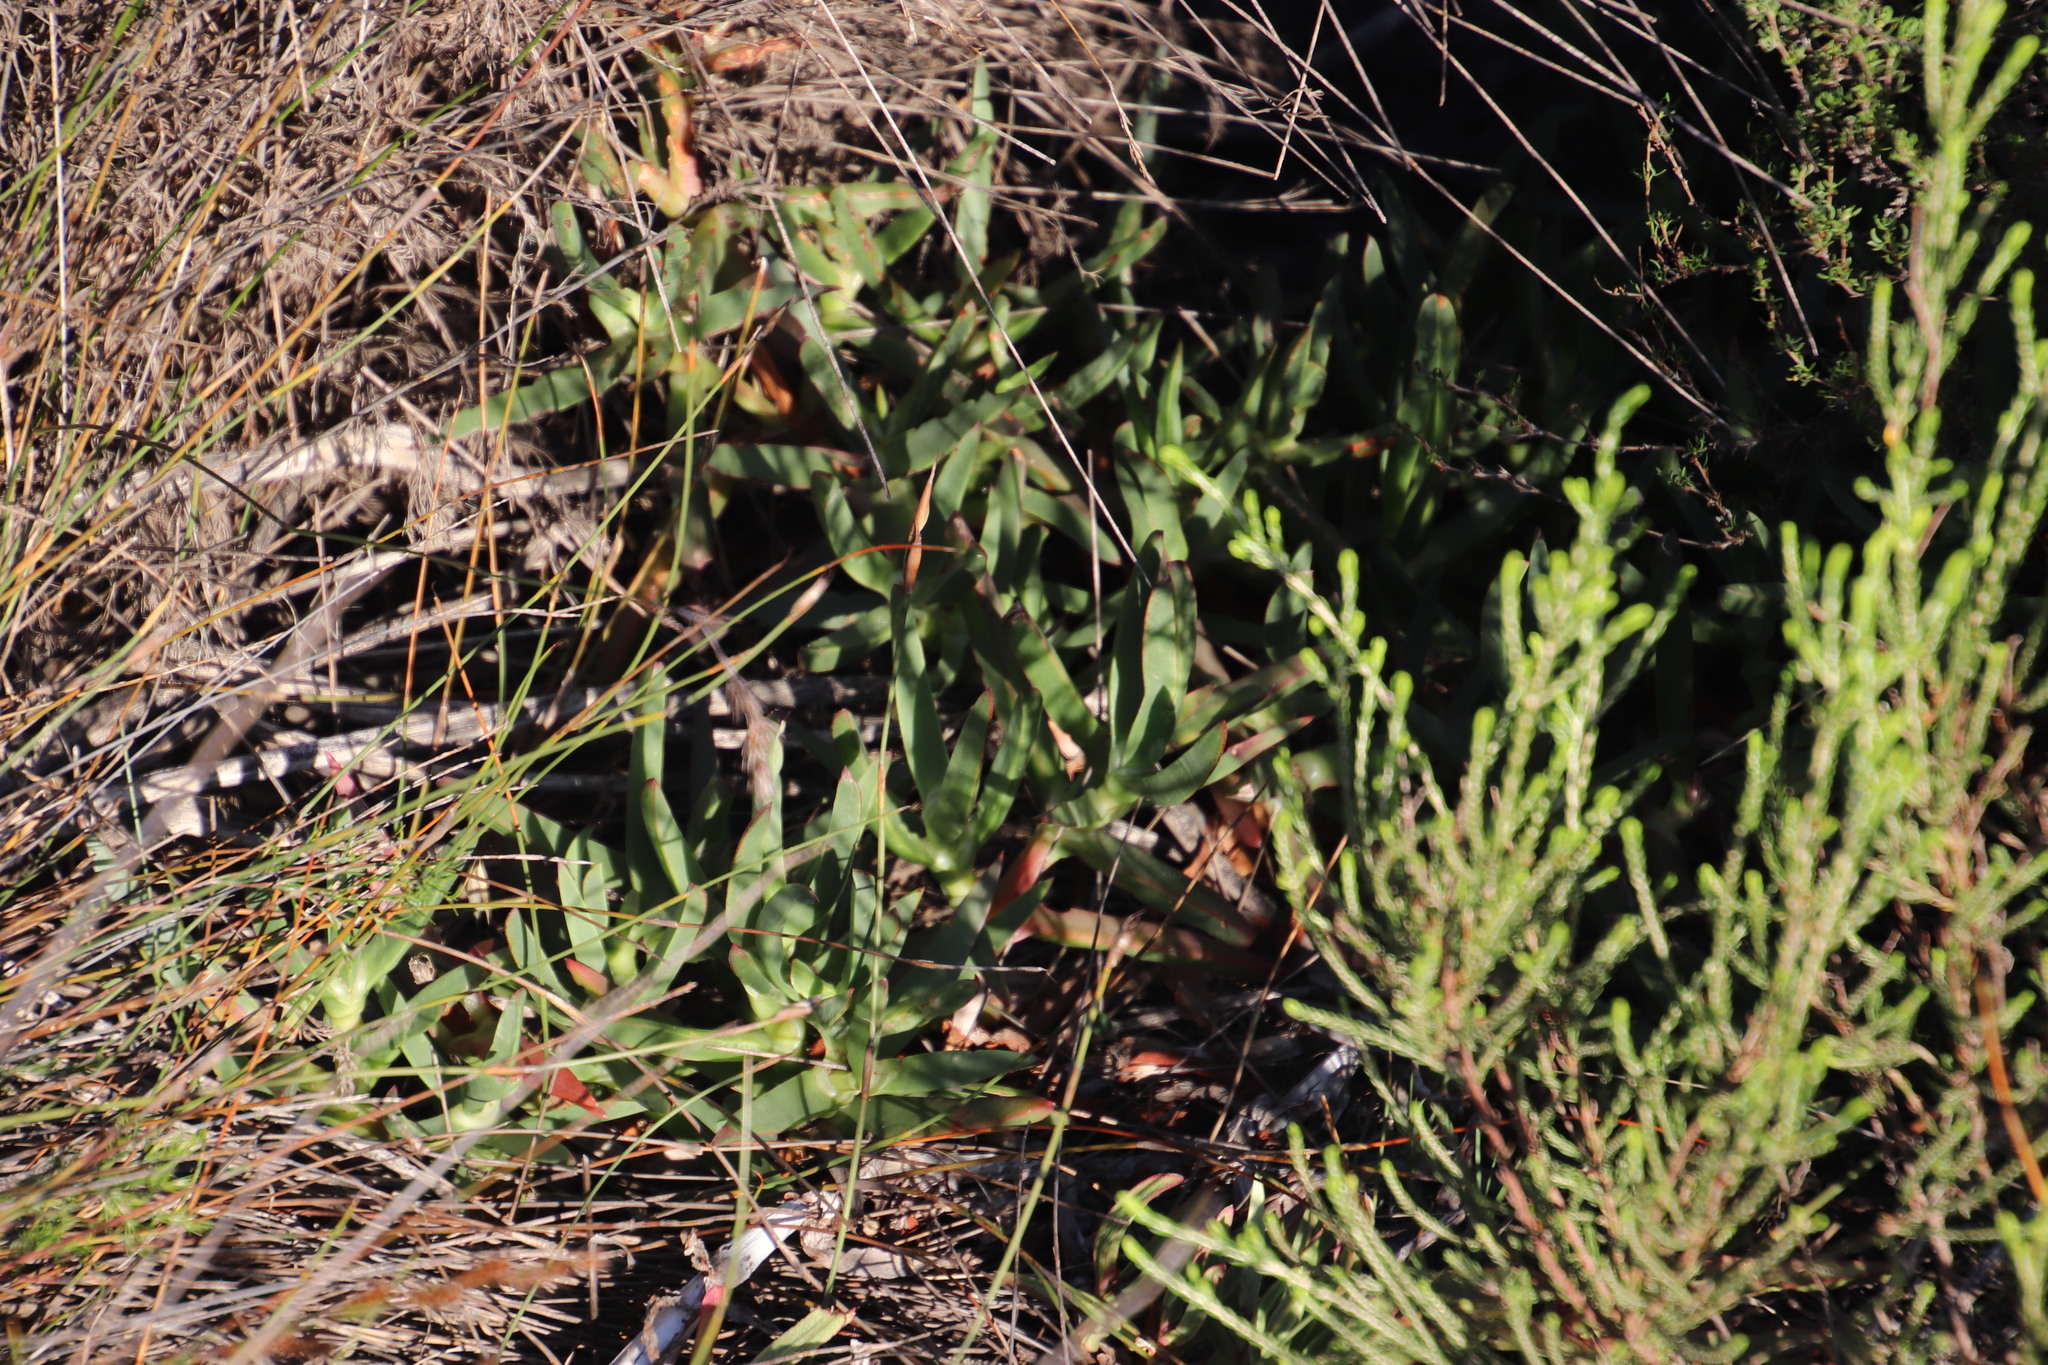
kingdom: Plantae
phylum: Tracheophyta
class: Magnoliopsida
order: Caryophyllales
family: Aizoaceae
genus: Carpobrotus
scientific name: Carpobrotus edulis
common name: Hottentot-fig
